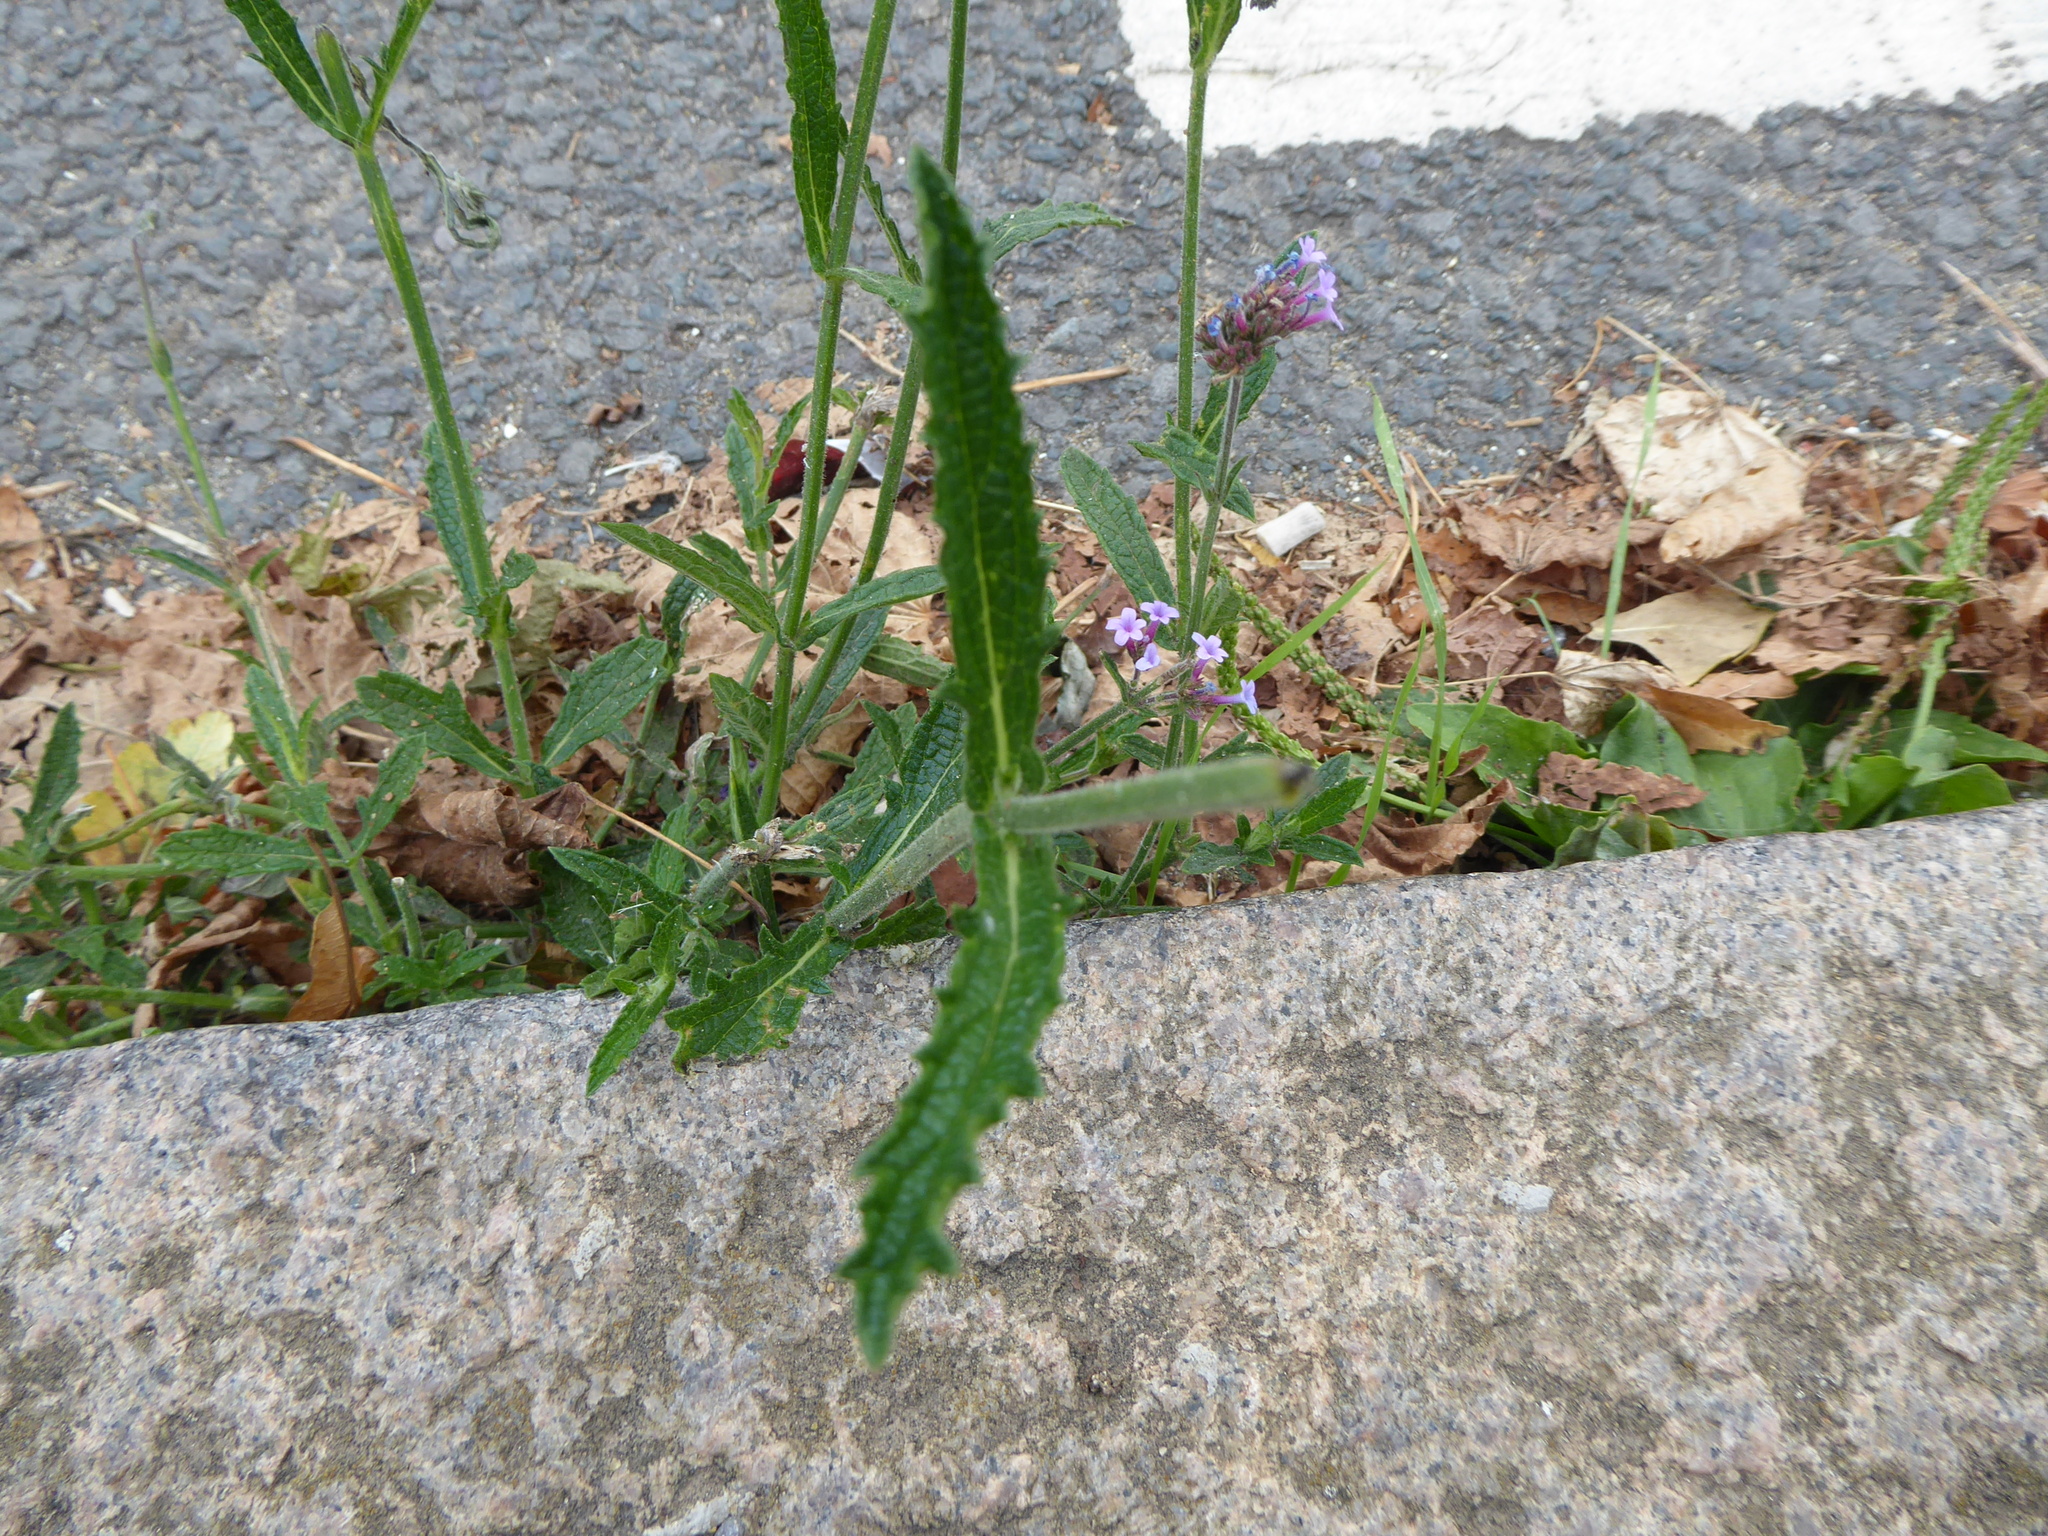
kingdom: Plantae
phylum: Tracheophyta
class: Magnoliopsida
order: Lamiales
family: Verbenaceae
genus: Verbena
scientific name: Verbena bonariensis
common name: Purpletop vervain
